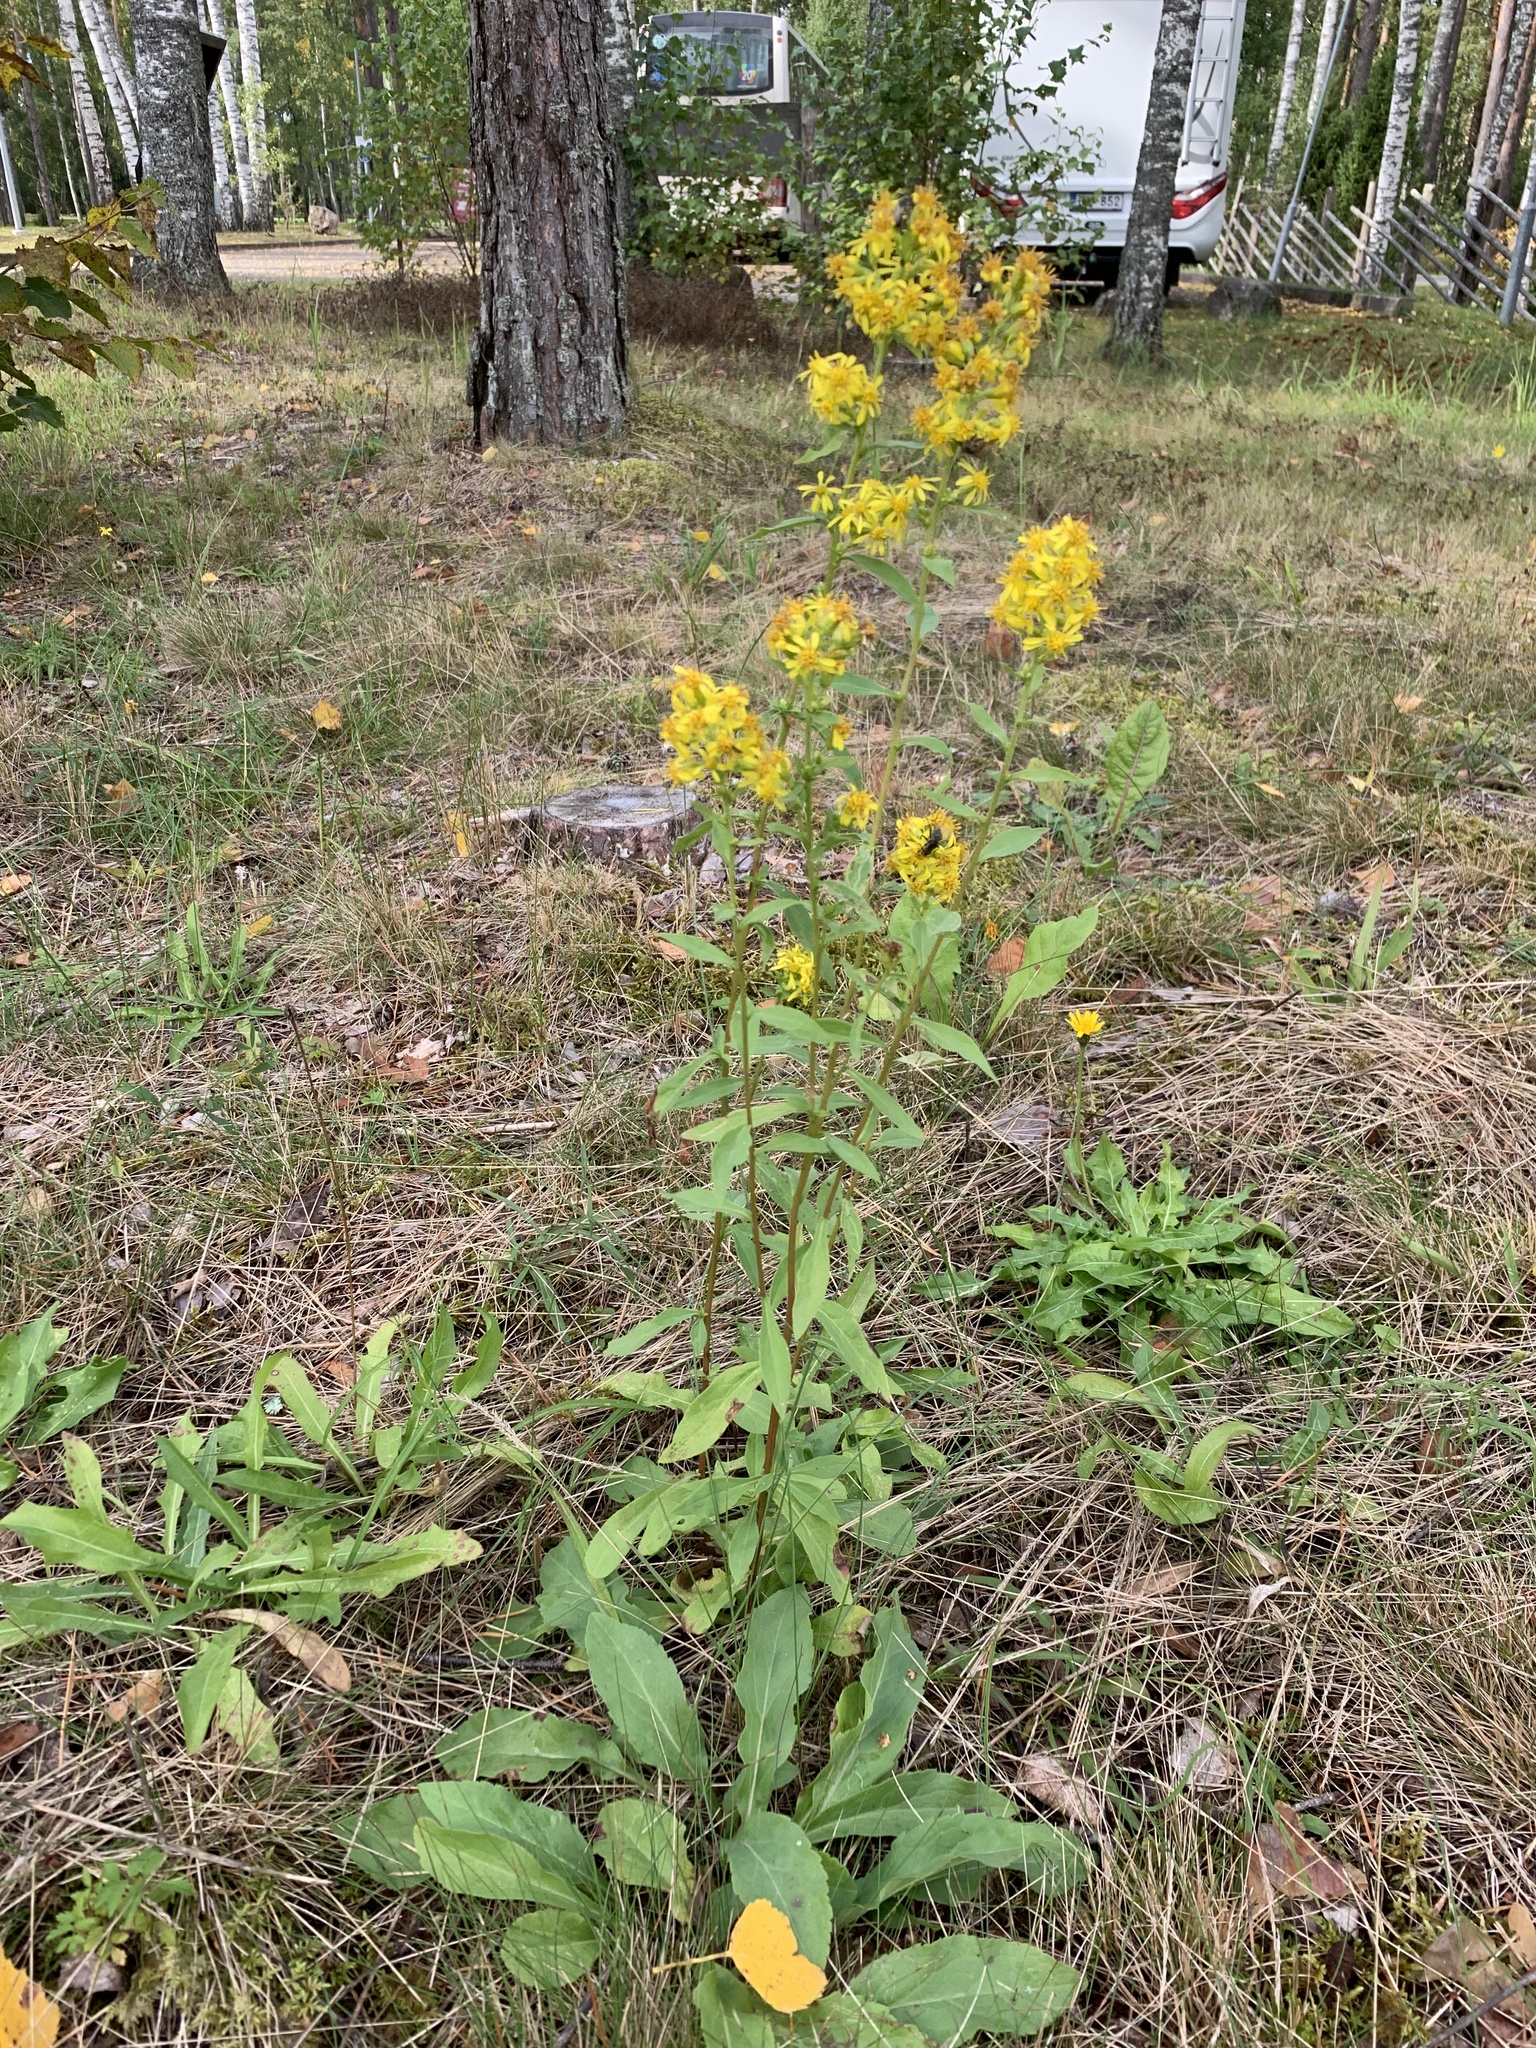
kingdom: Plantae
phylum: Tracheophyta
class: Magnoliopsida
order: Asterales
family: Asteraceae
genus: Solidago
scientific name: Solidago virgaurea
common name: Goldenrod
